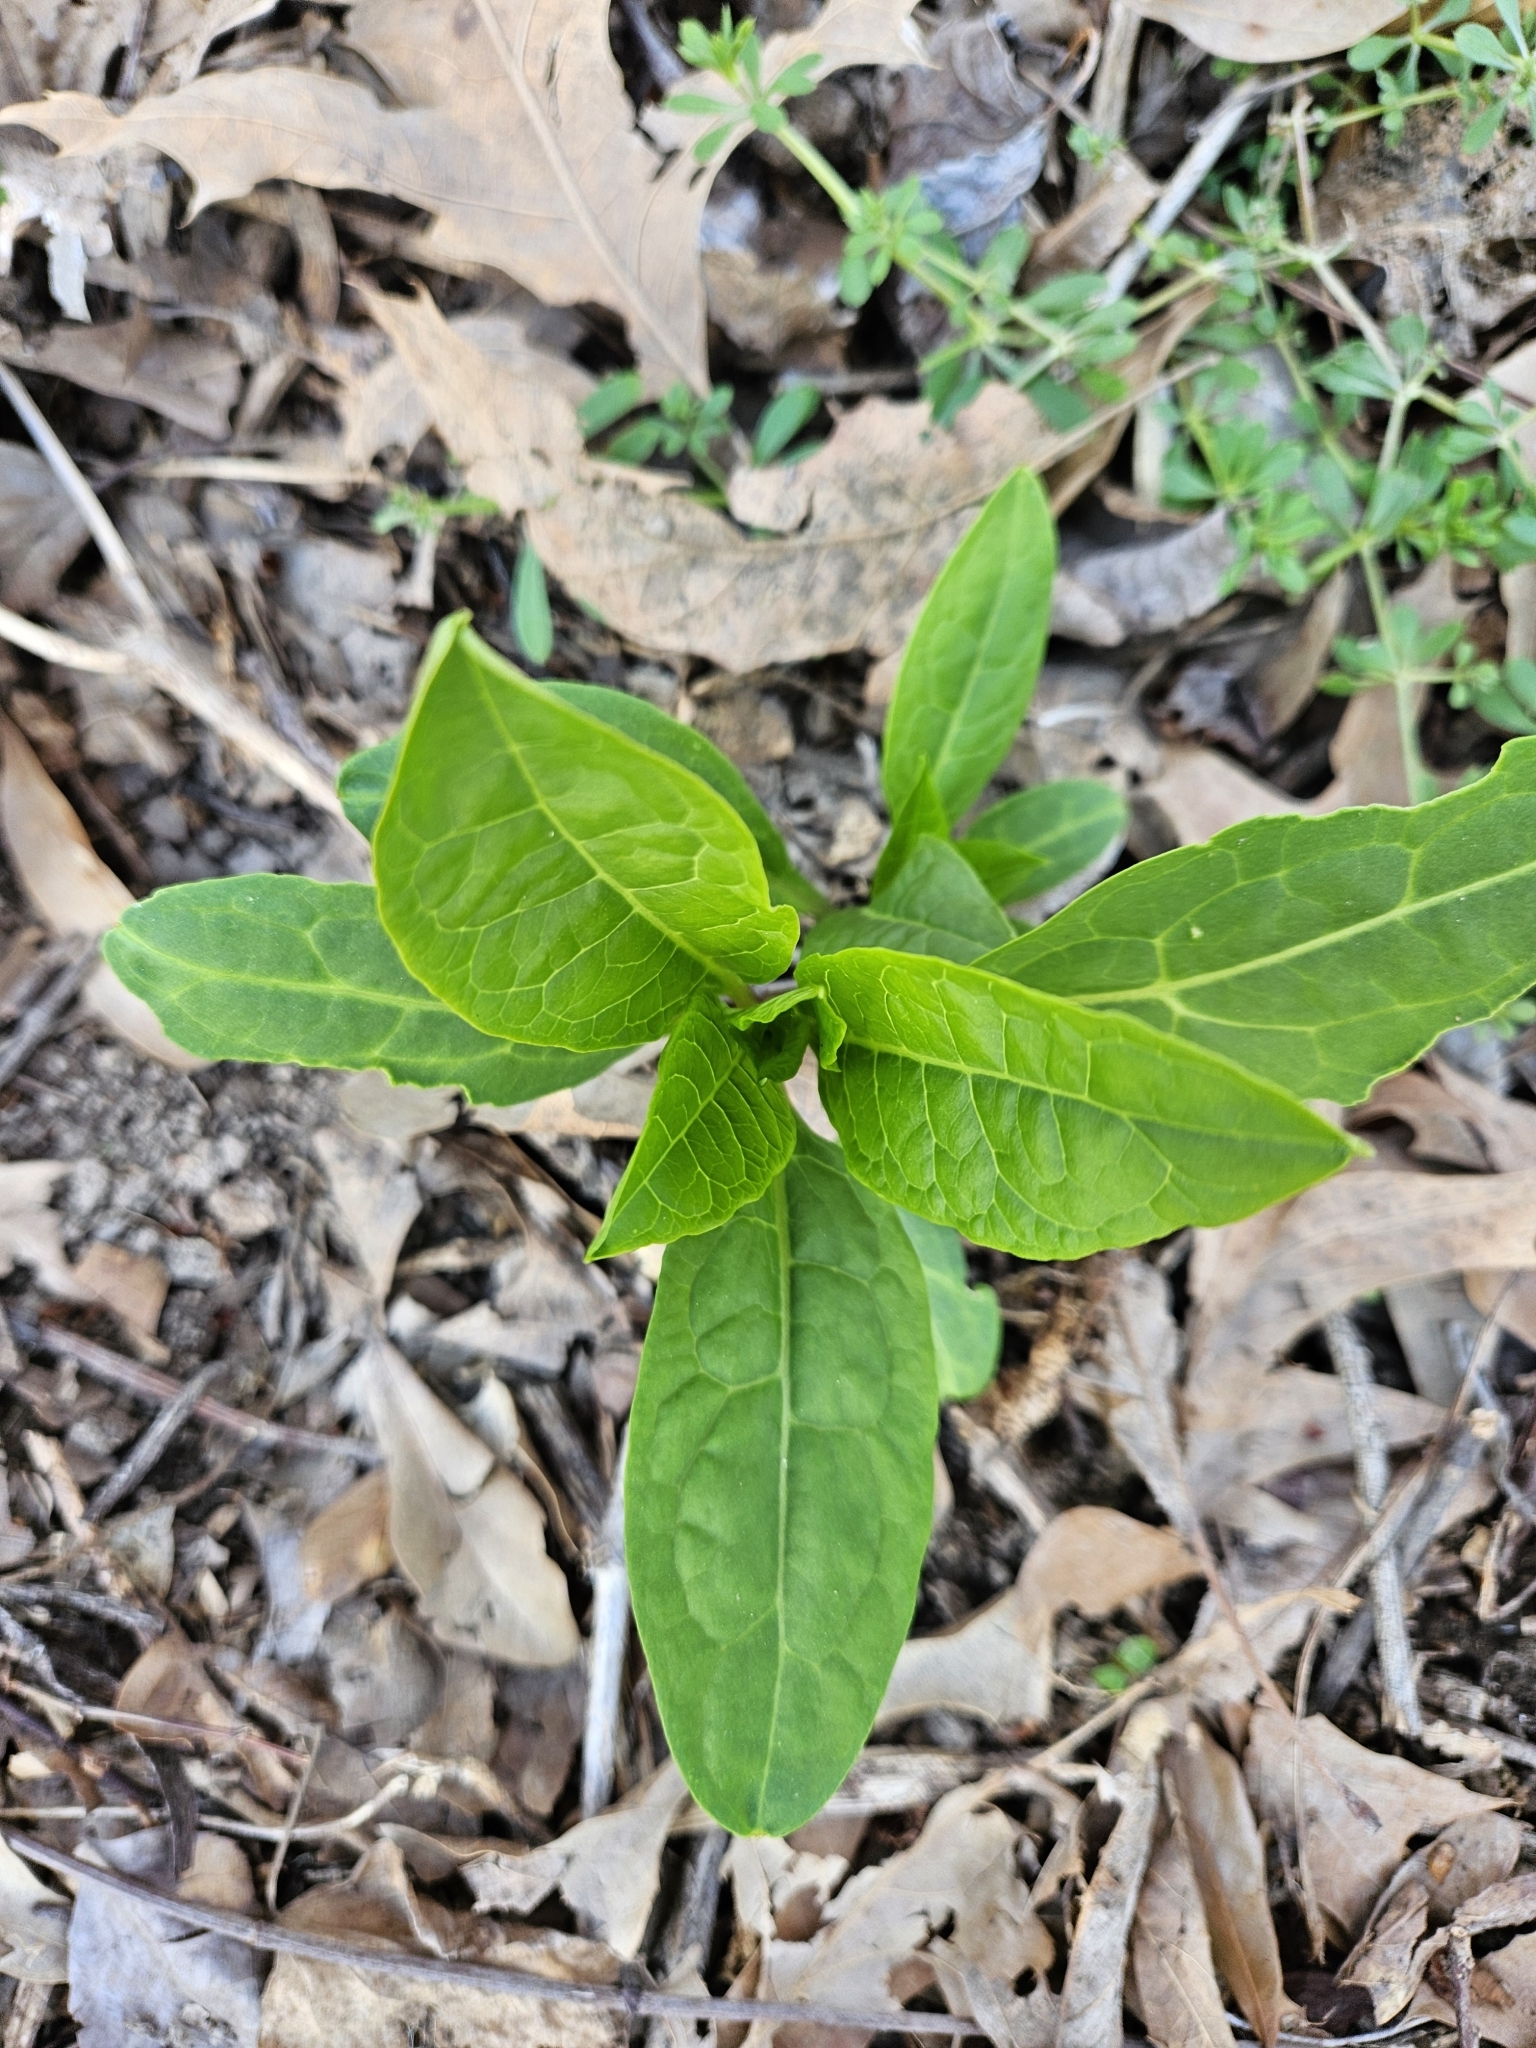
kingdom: Plantae
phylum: Tracheophyta
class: Magnoliopsida
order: Caryophyllales
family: Phytolaccaceae
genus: Phytolacca
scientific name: Phytolacca americana
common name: American pokeweed
